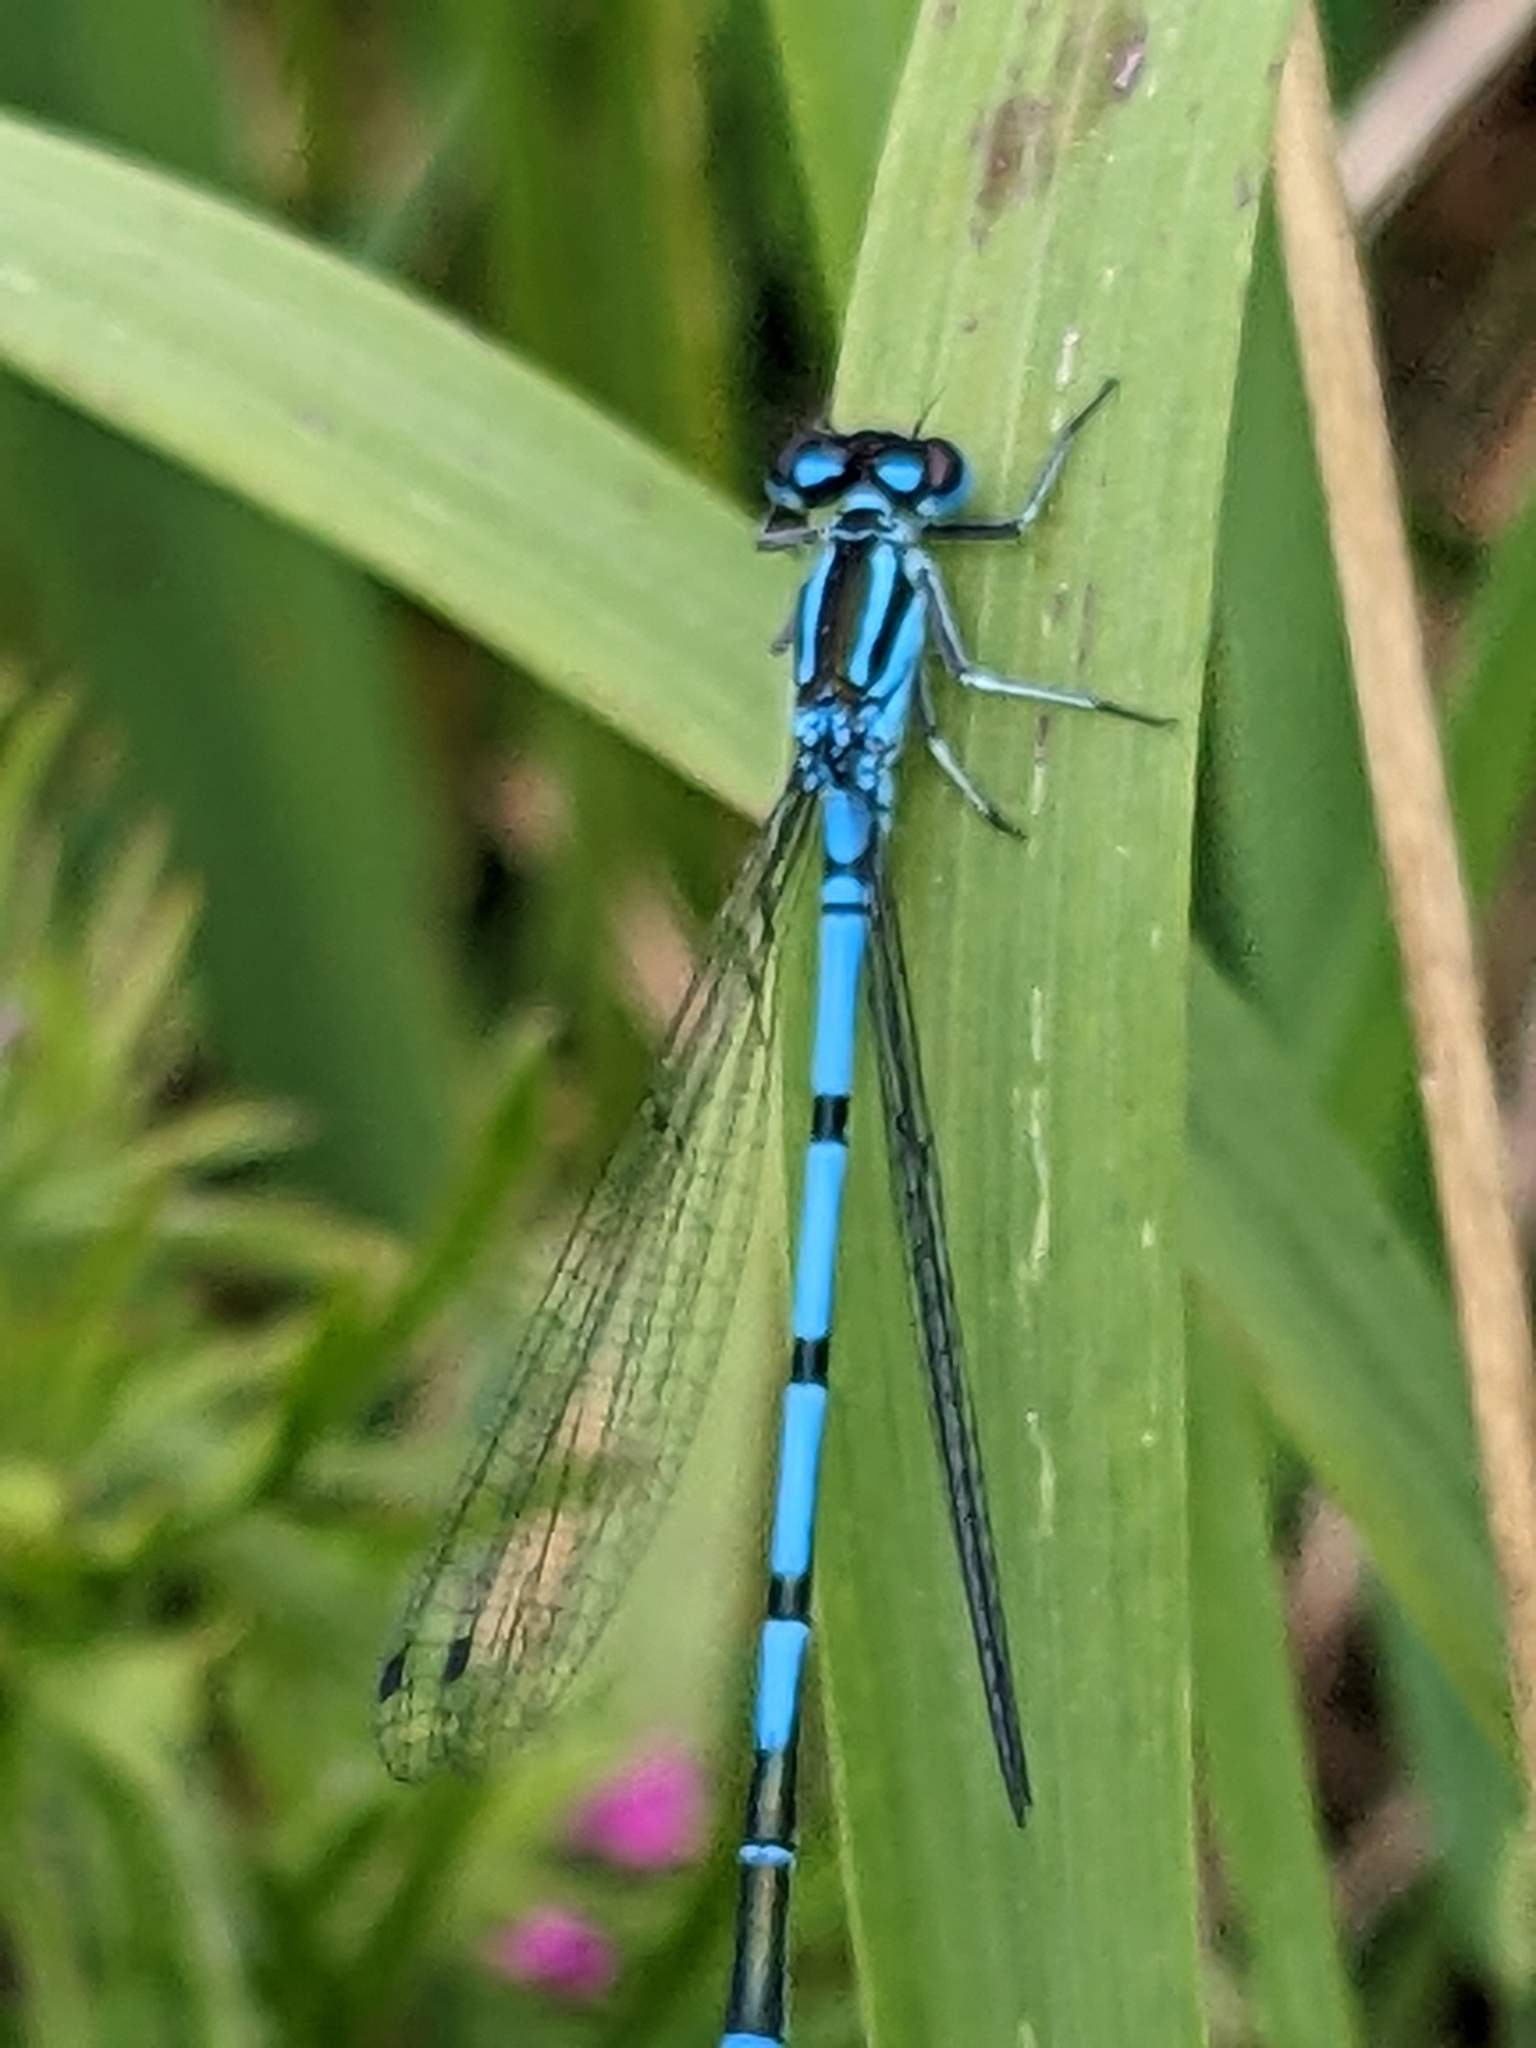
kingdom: Animalia
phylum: Arthropoda
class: Insecta
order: Odonata
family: Coenagrionidae
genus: Coenagrion
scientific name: Coenagrion puella
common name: Azure damselfly
